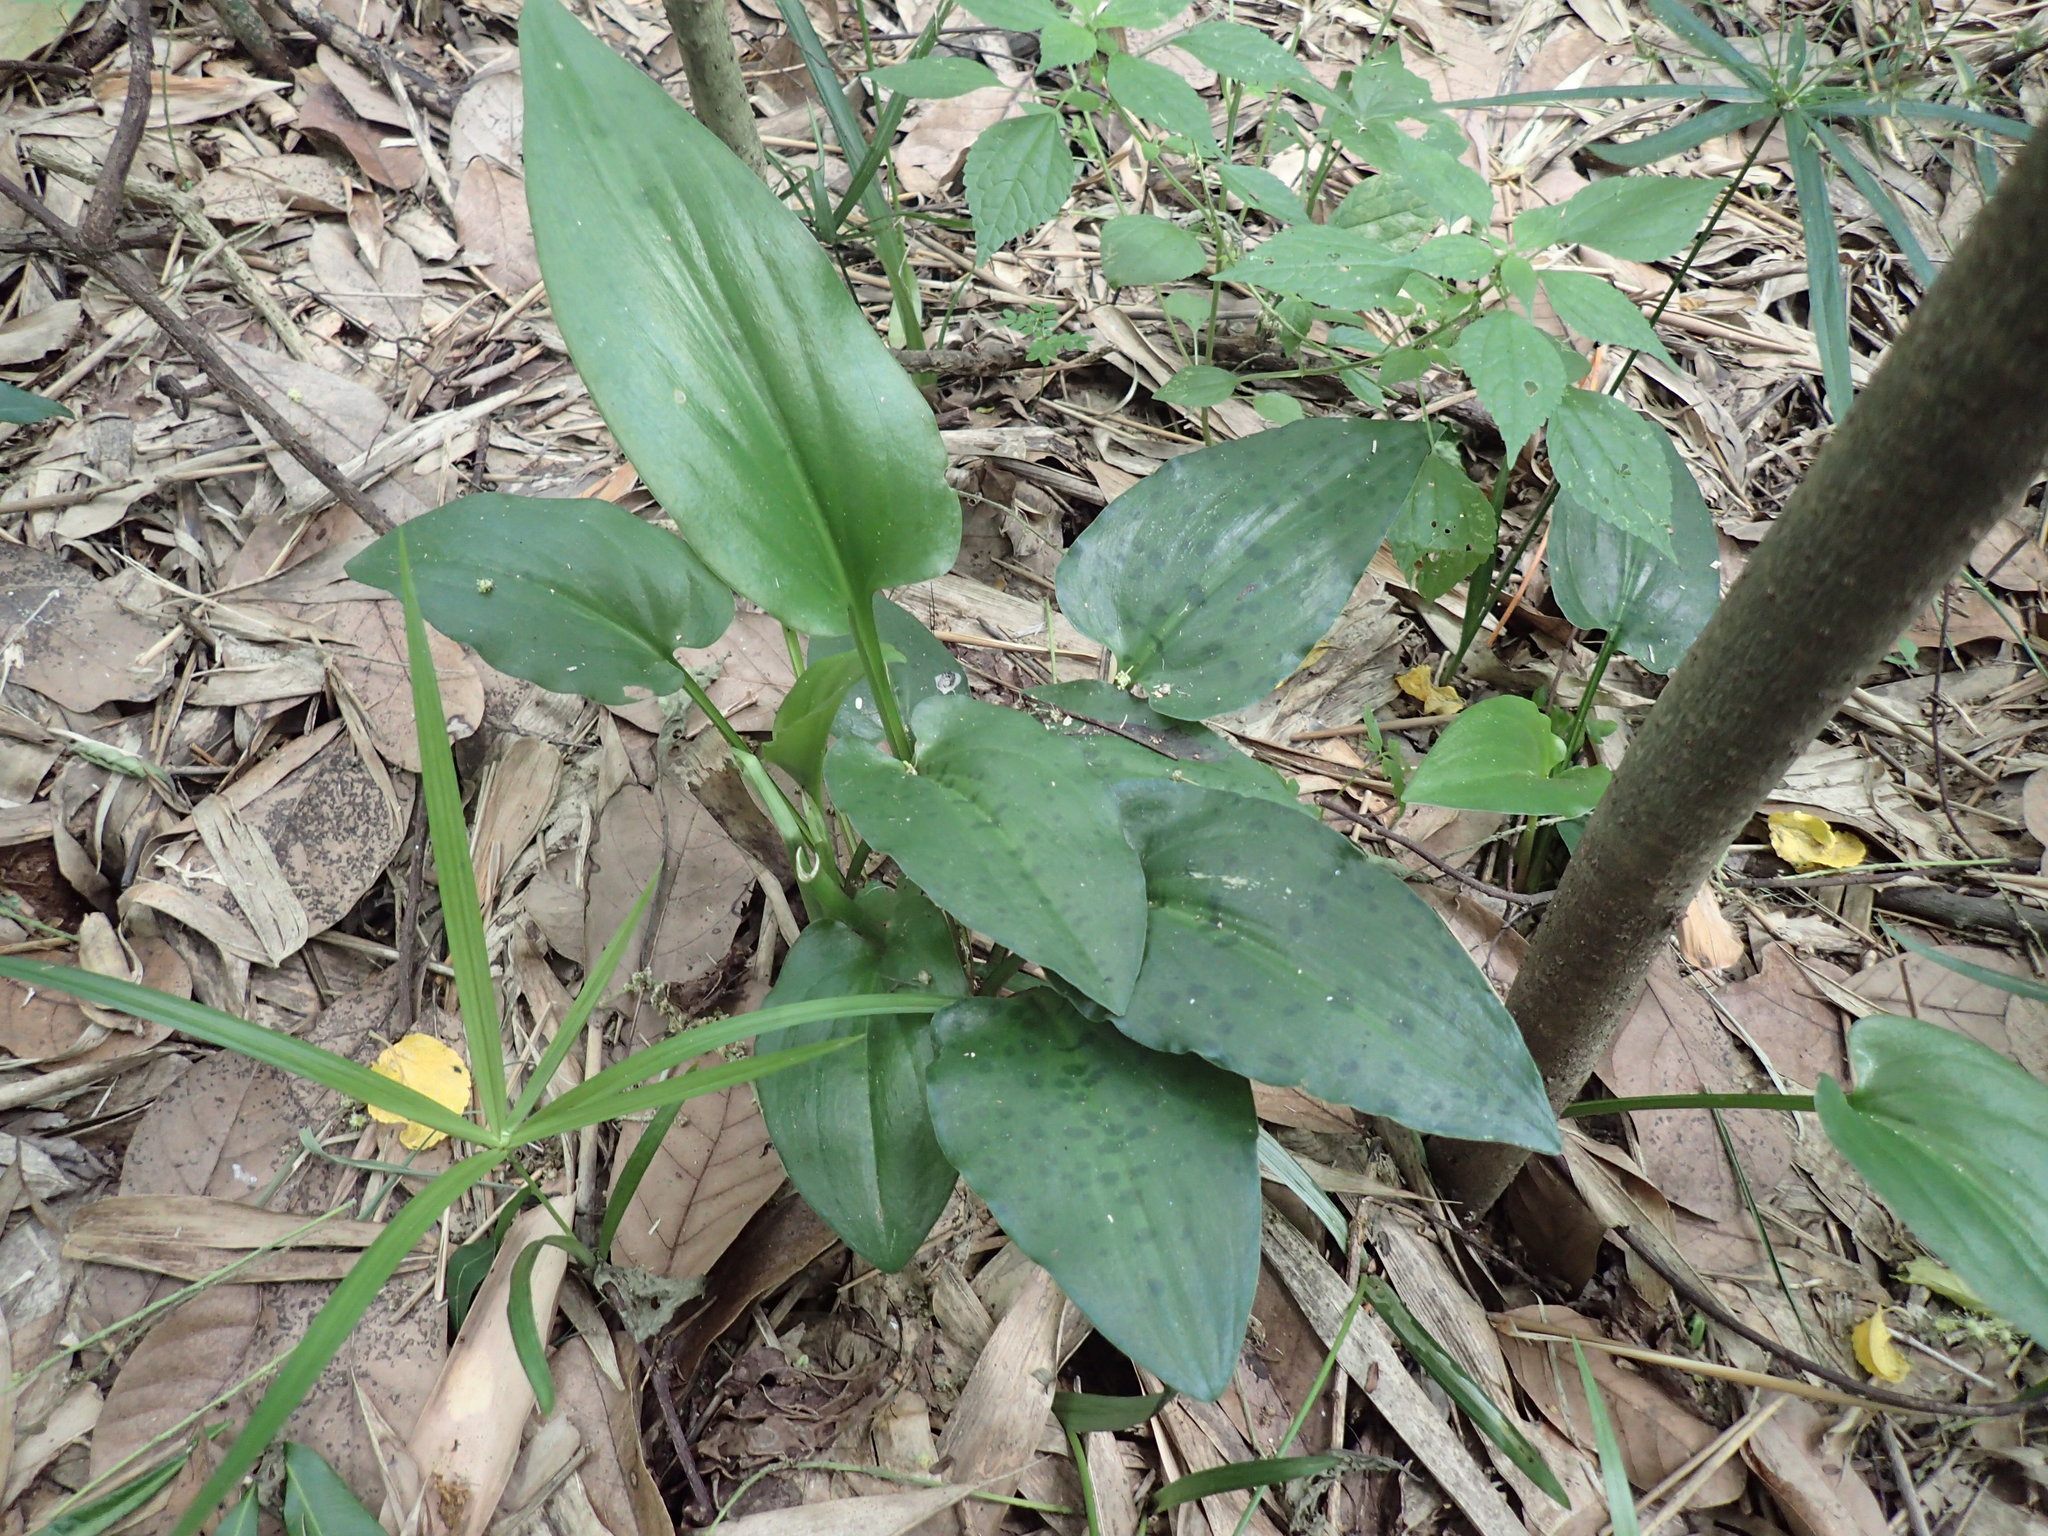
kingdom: Plantae
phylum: Tracheophyta
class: Liliopsida
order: Asparagales
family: Asparagaceae
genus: Drimiopsis
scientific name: Drimiopsis maculata
